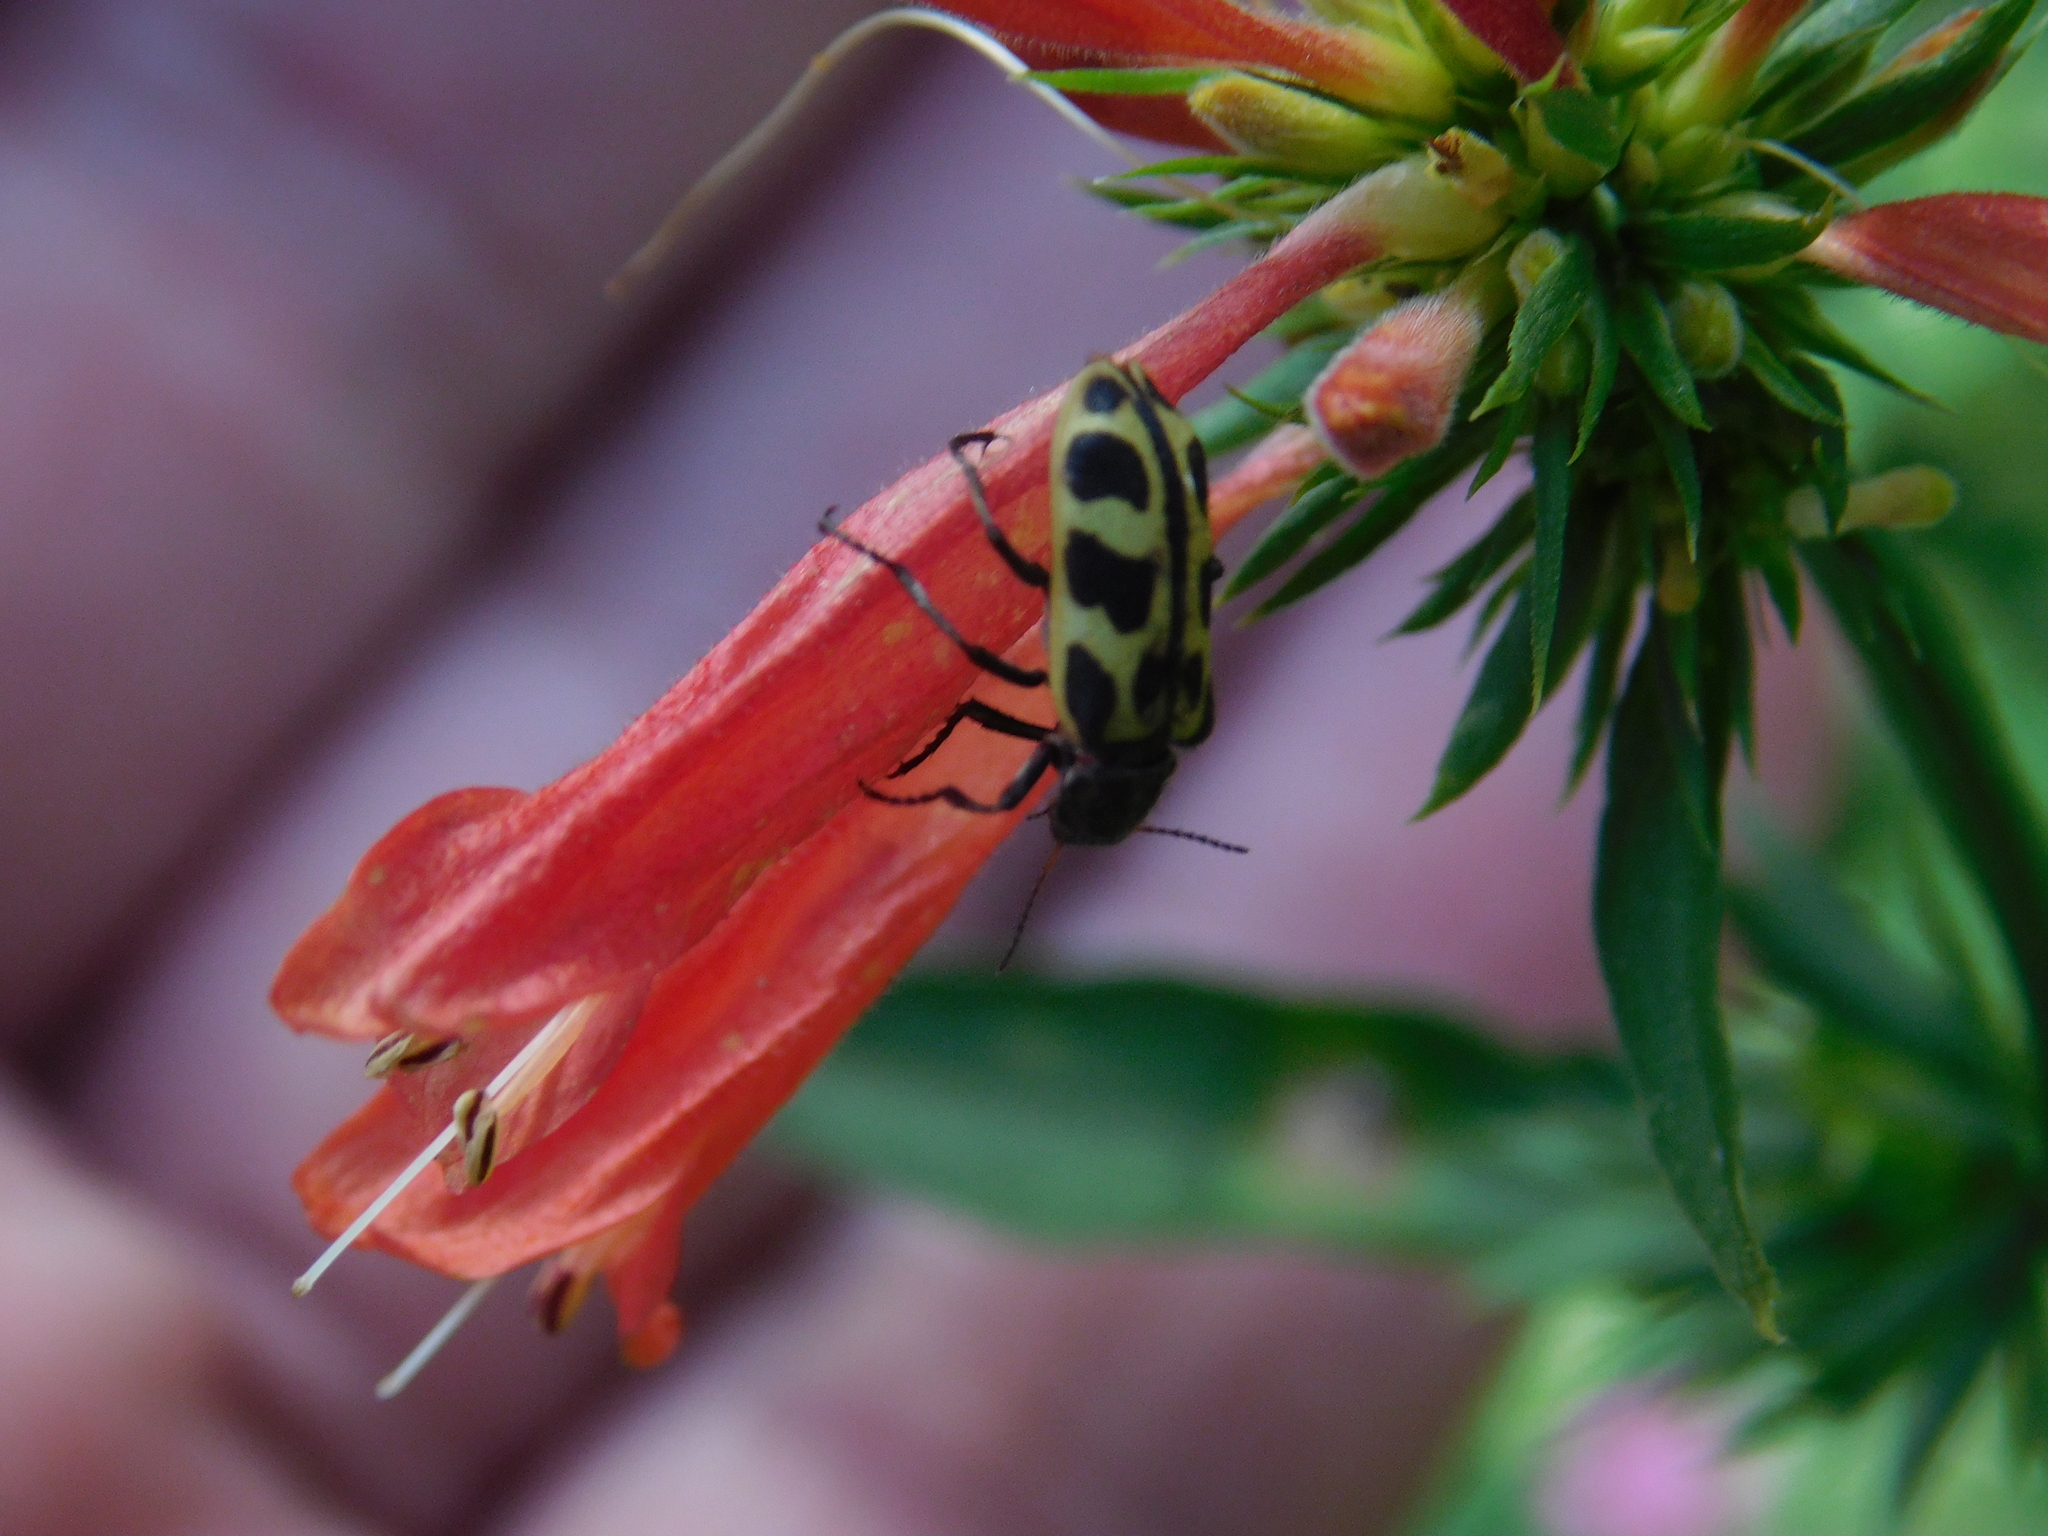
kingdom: Animalia
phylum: Arthropoda
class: Insecta
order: Coleoptera
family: Melyridae
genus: Astylus
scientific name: Astylus atromaculatus
